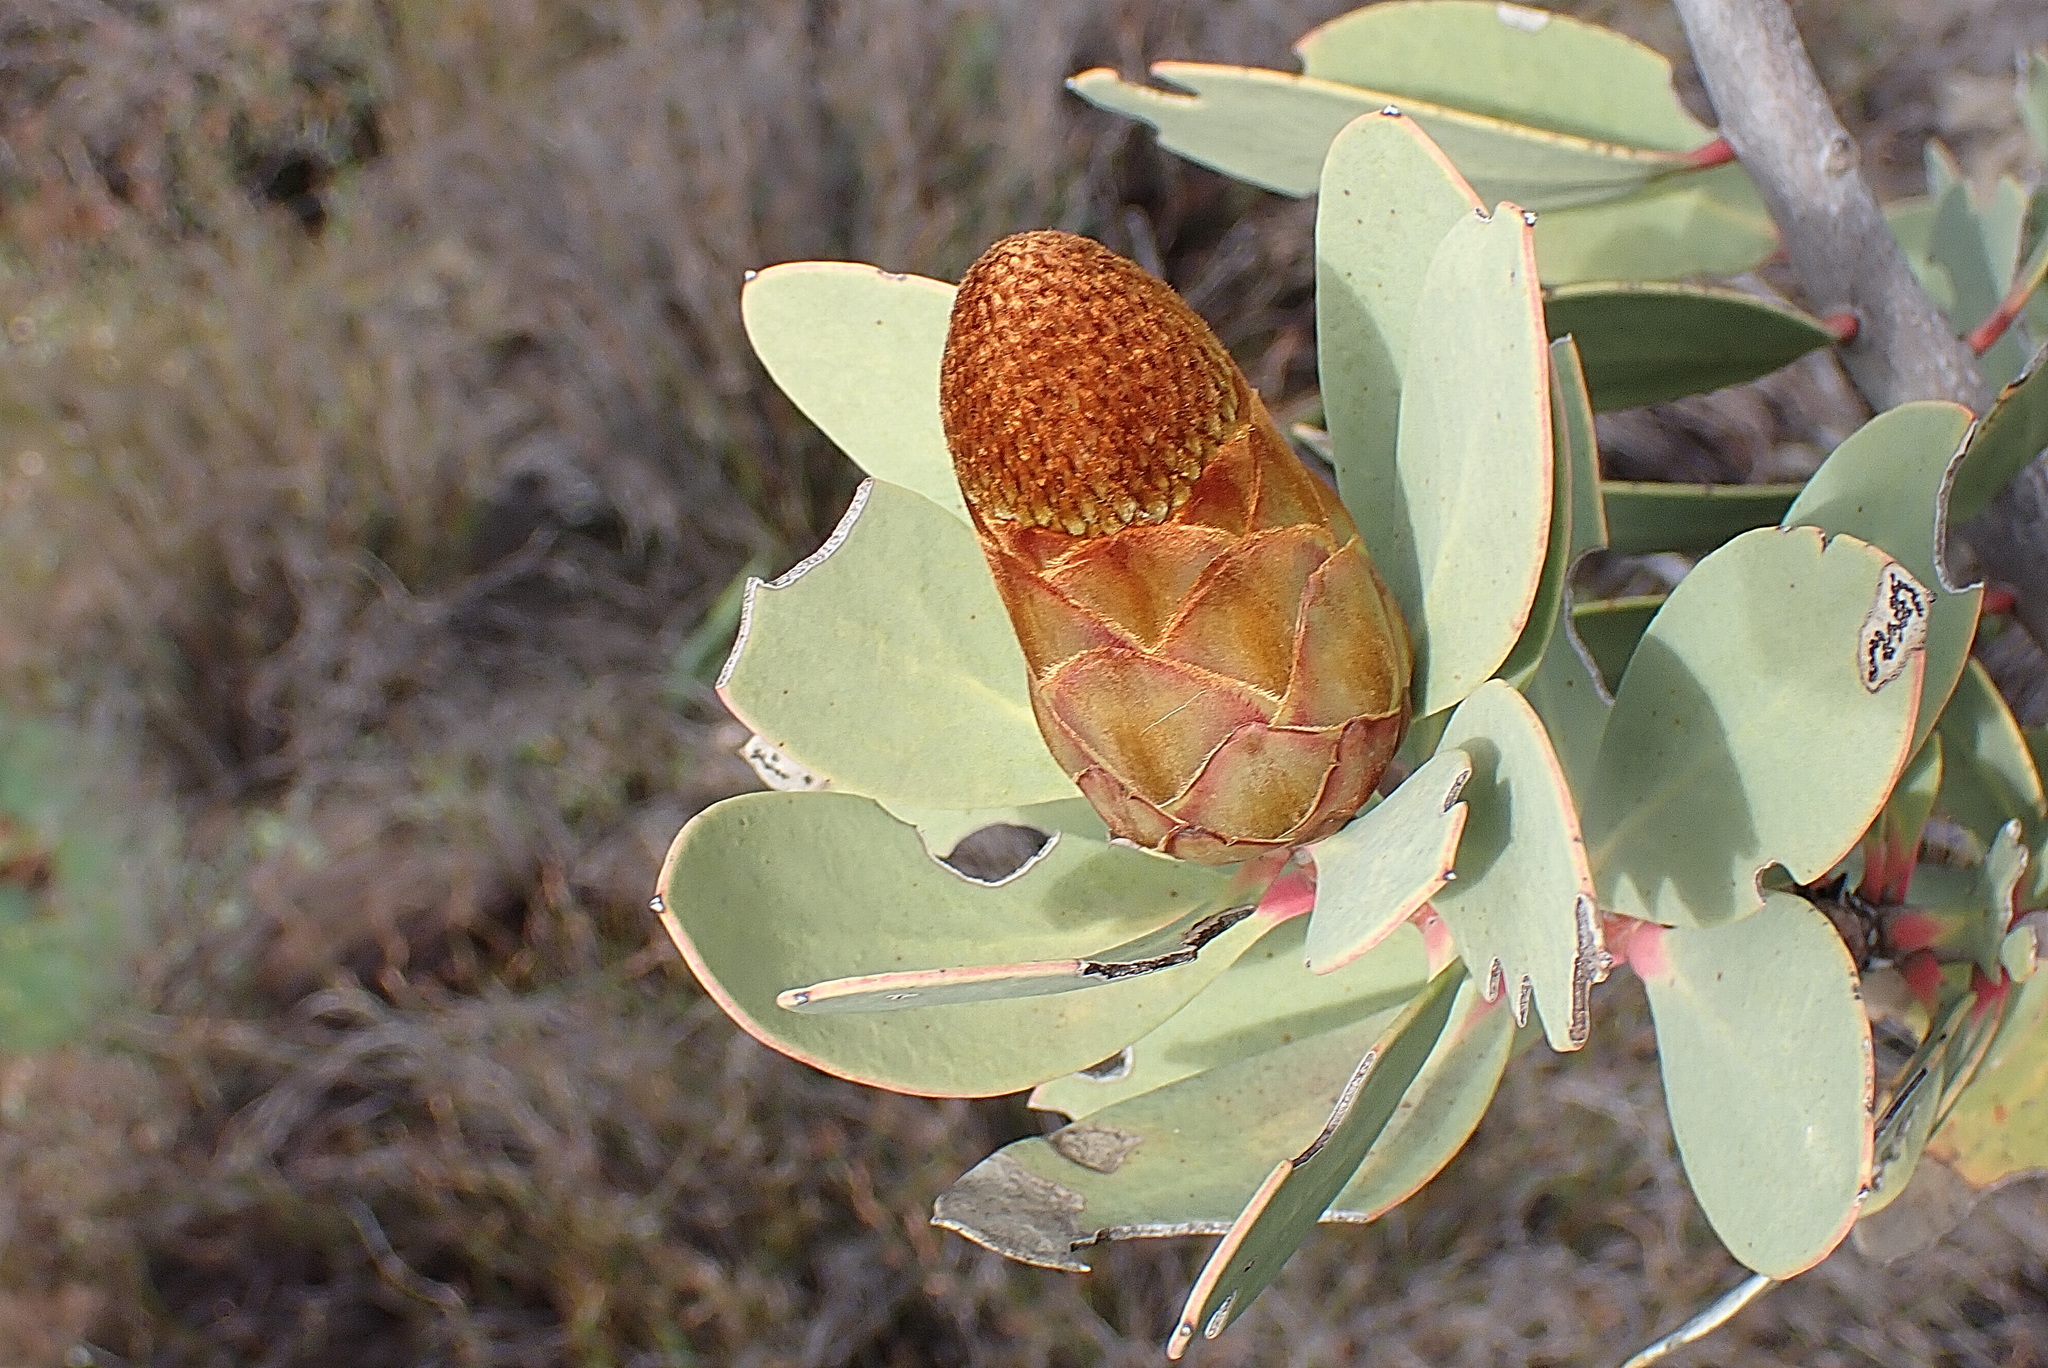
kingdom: Plantae
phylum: Tracheophyta
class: Magnoliopsida
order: Proteales
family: Proteaceae
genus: Protea
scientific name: Protea glabra
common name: Chestnut sugarbush
